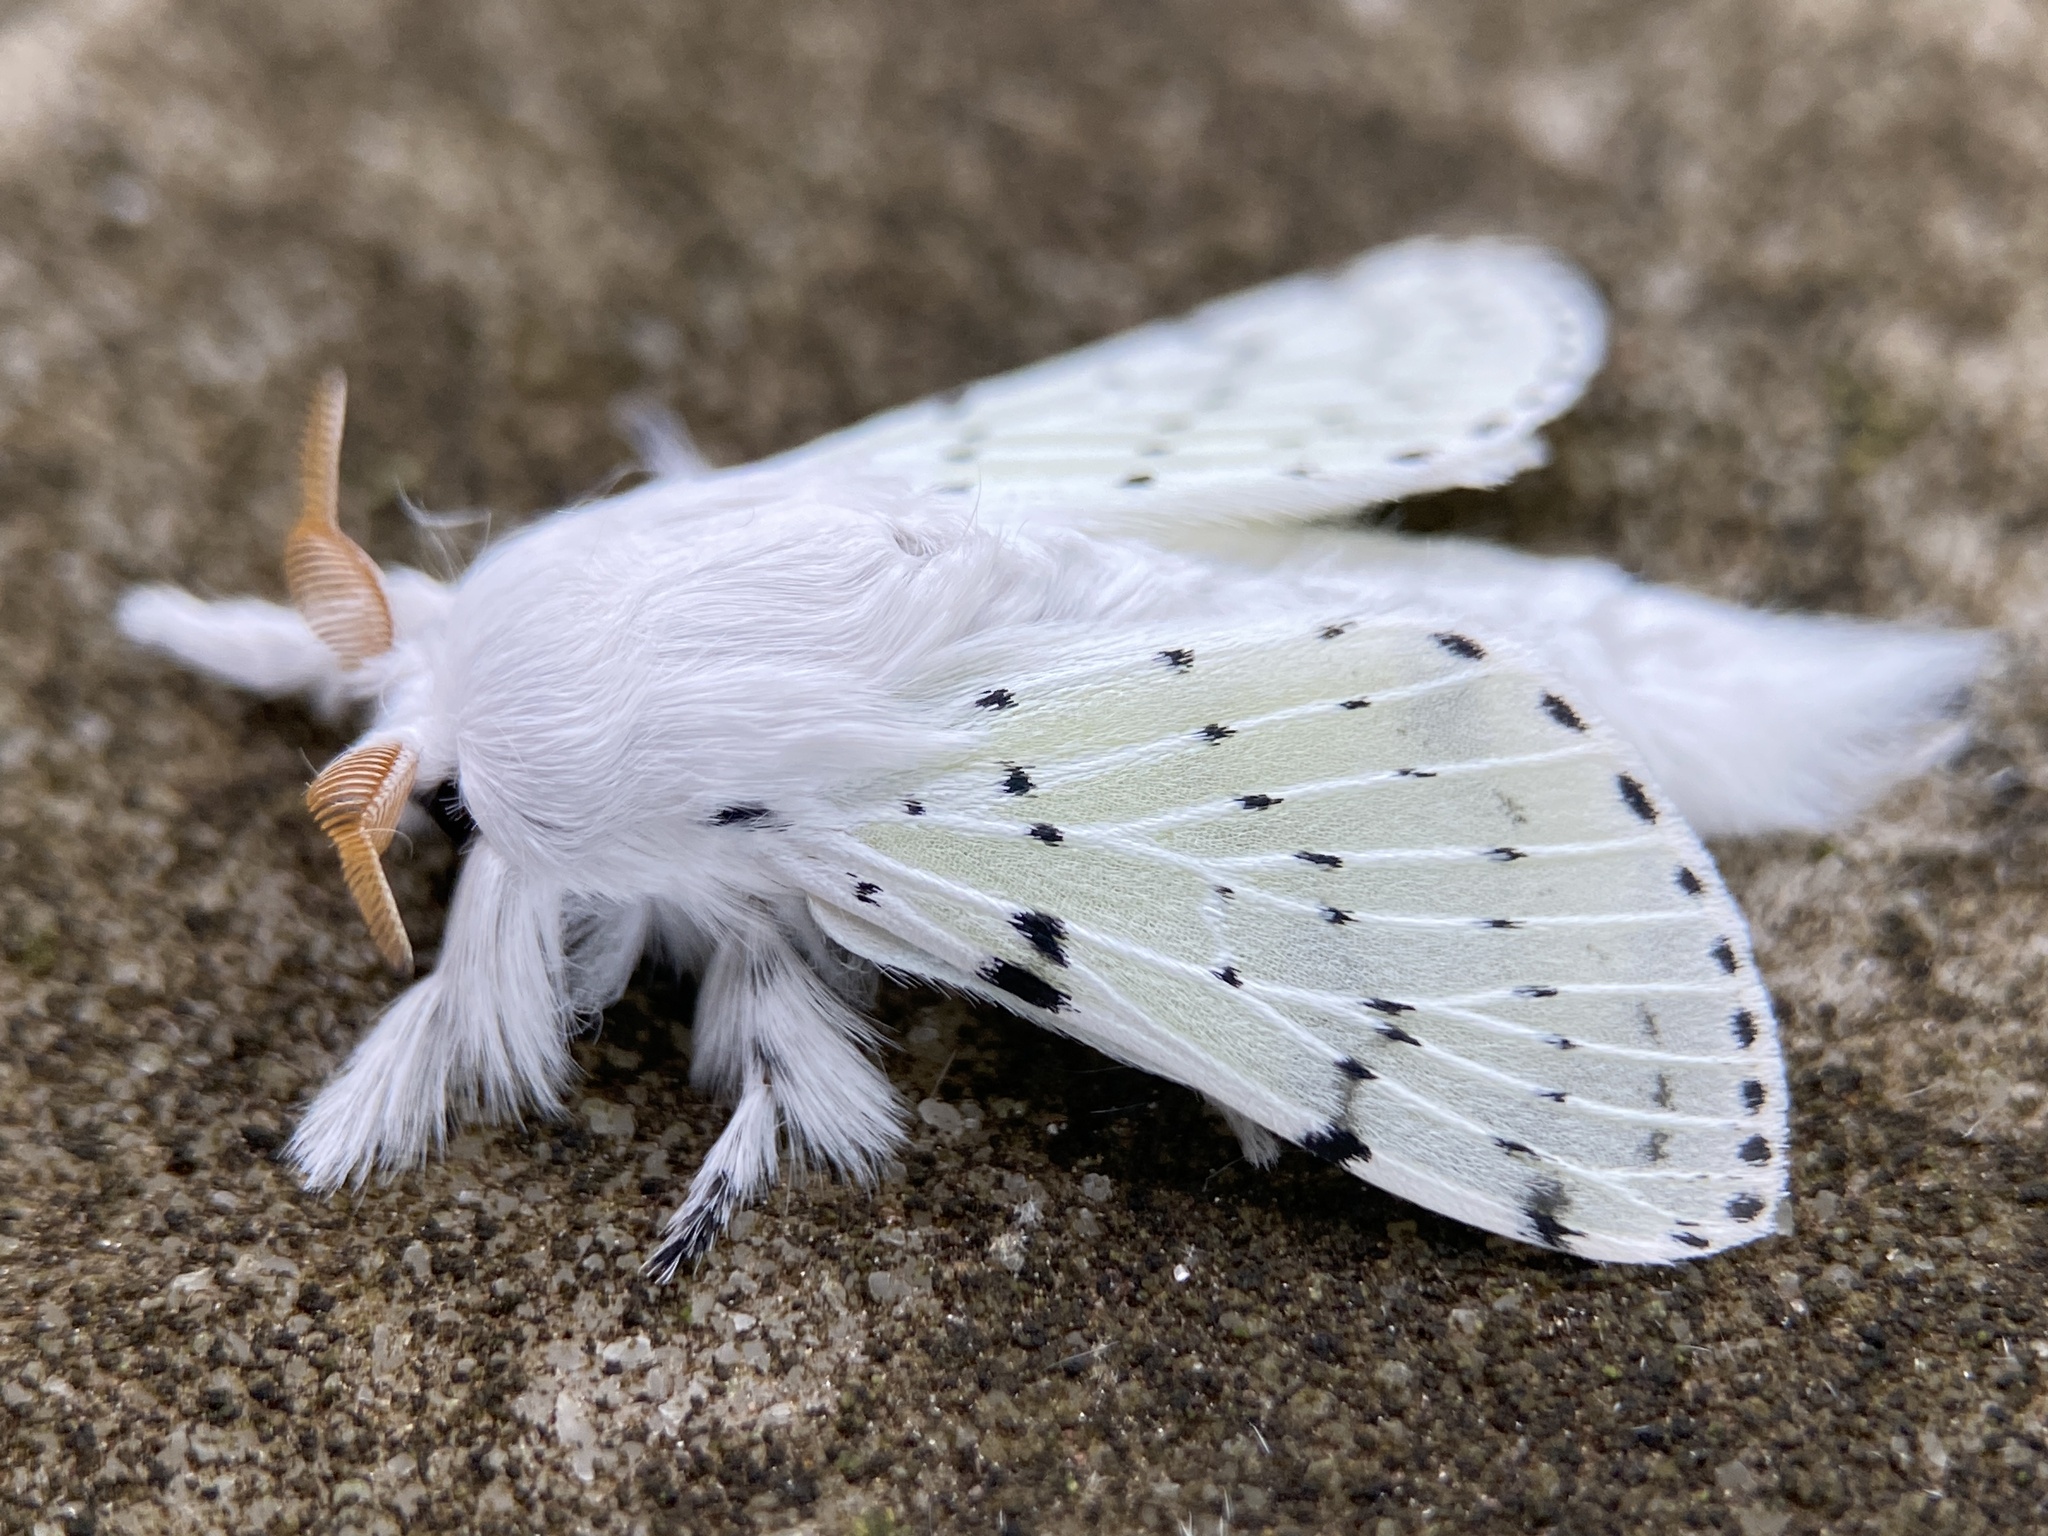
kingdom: Animalia
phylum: Arthropoda
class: Insecta
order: Lepidoptera
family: Lasiocampidae
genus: Artace
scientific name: Artace cribrarius
